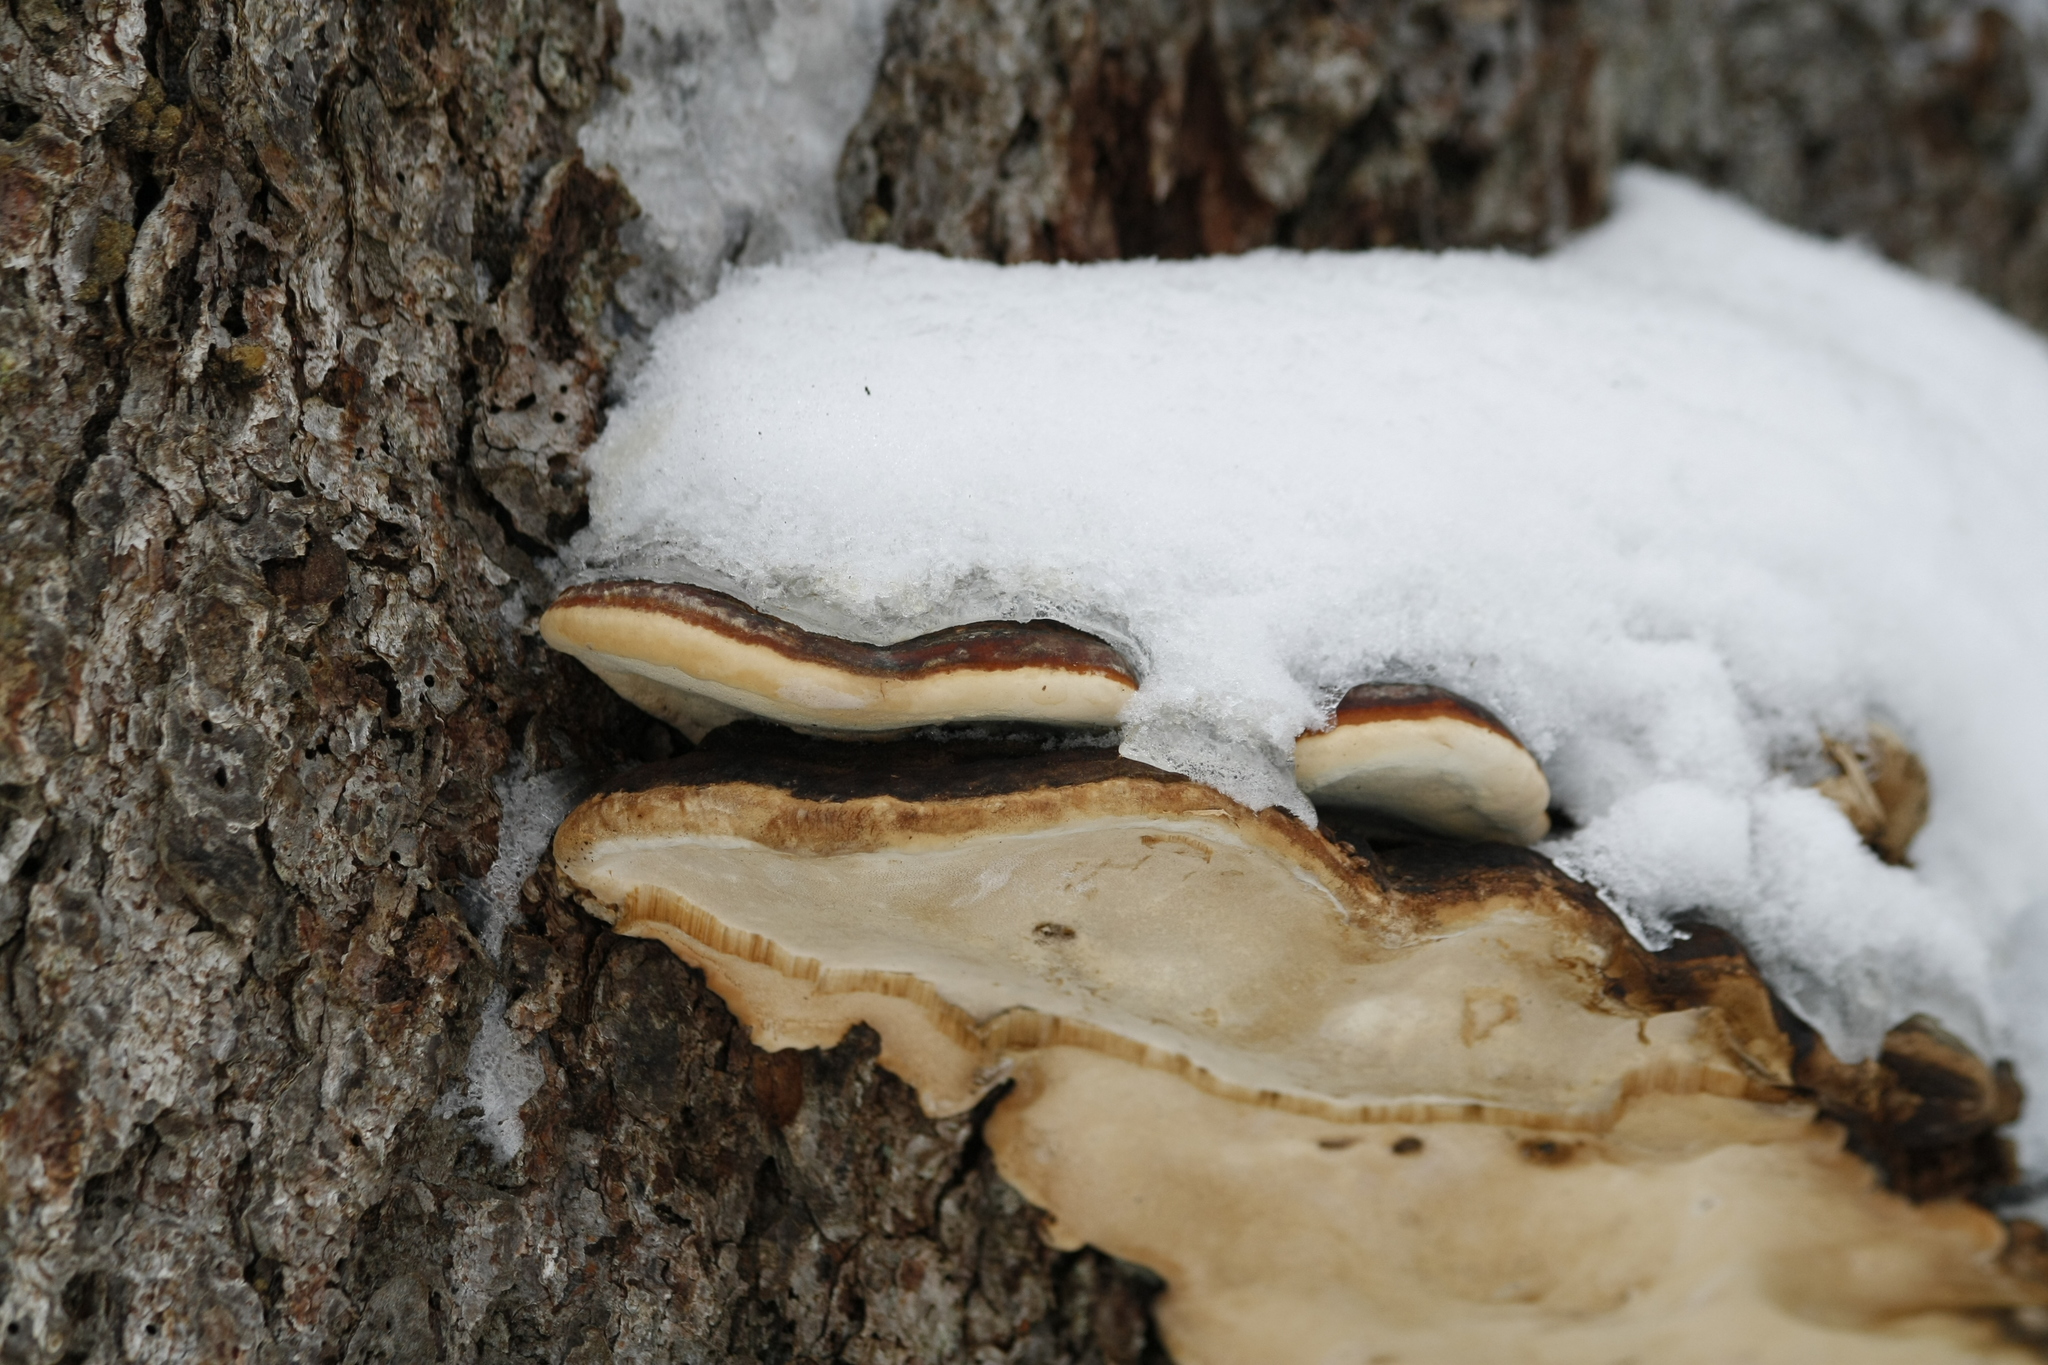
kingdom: Fungi
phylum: Basidiomycota
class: Agaricomycetes
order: Polyporales
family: Fomitopsidaceae
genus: Fomitopsis
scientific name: Fomitopsis pinicola
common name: Red-belted bracket
